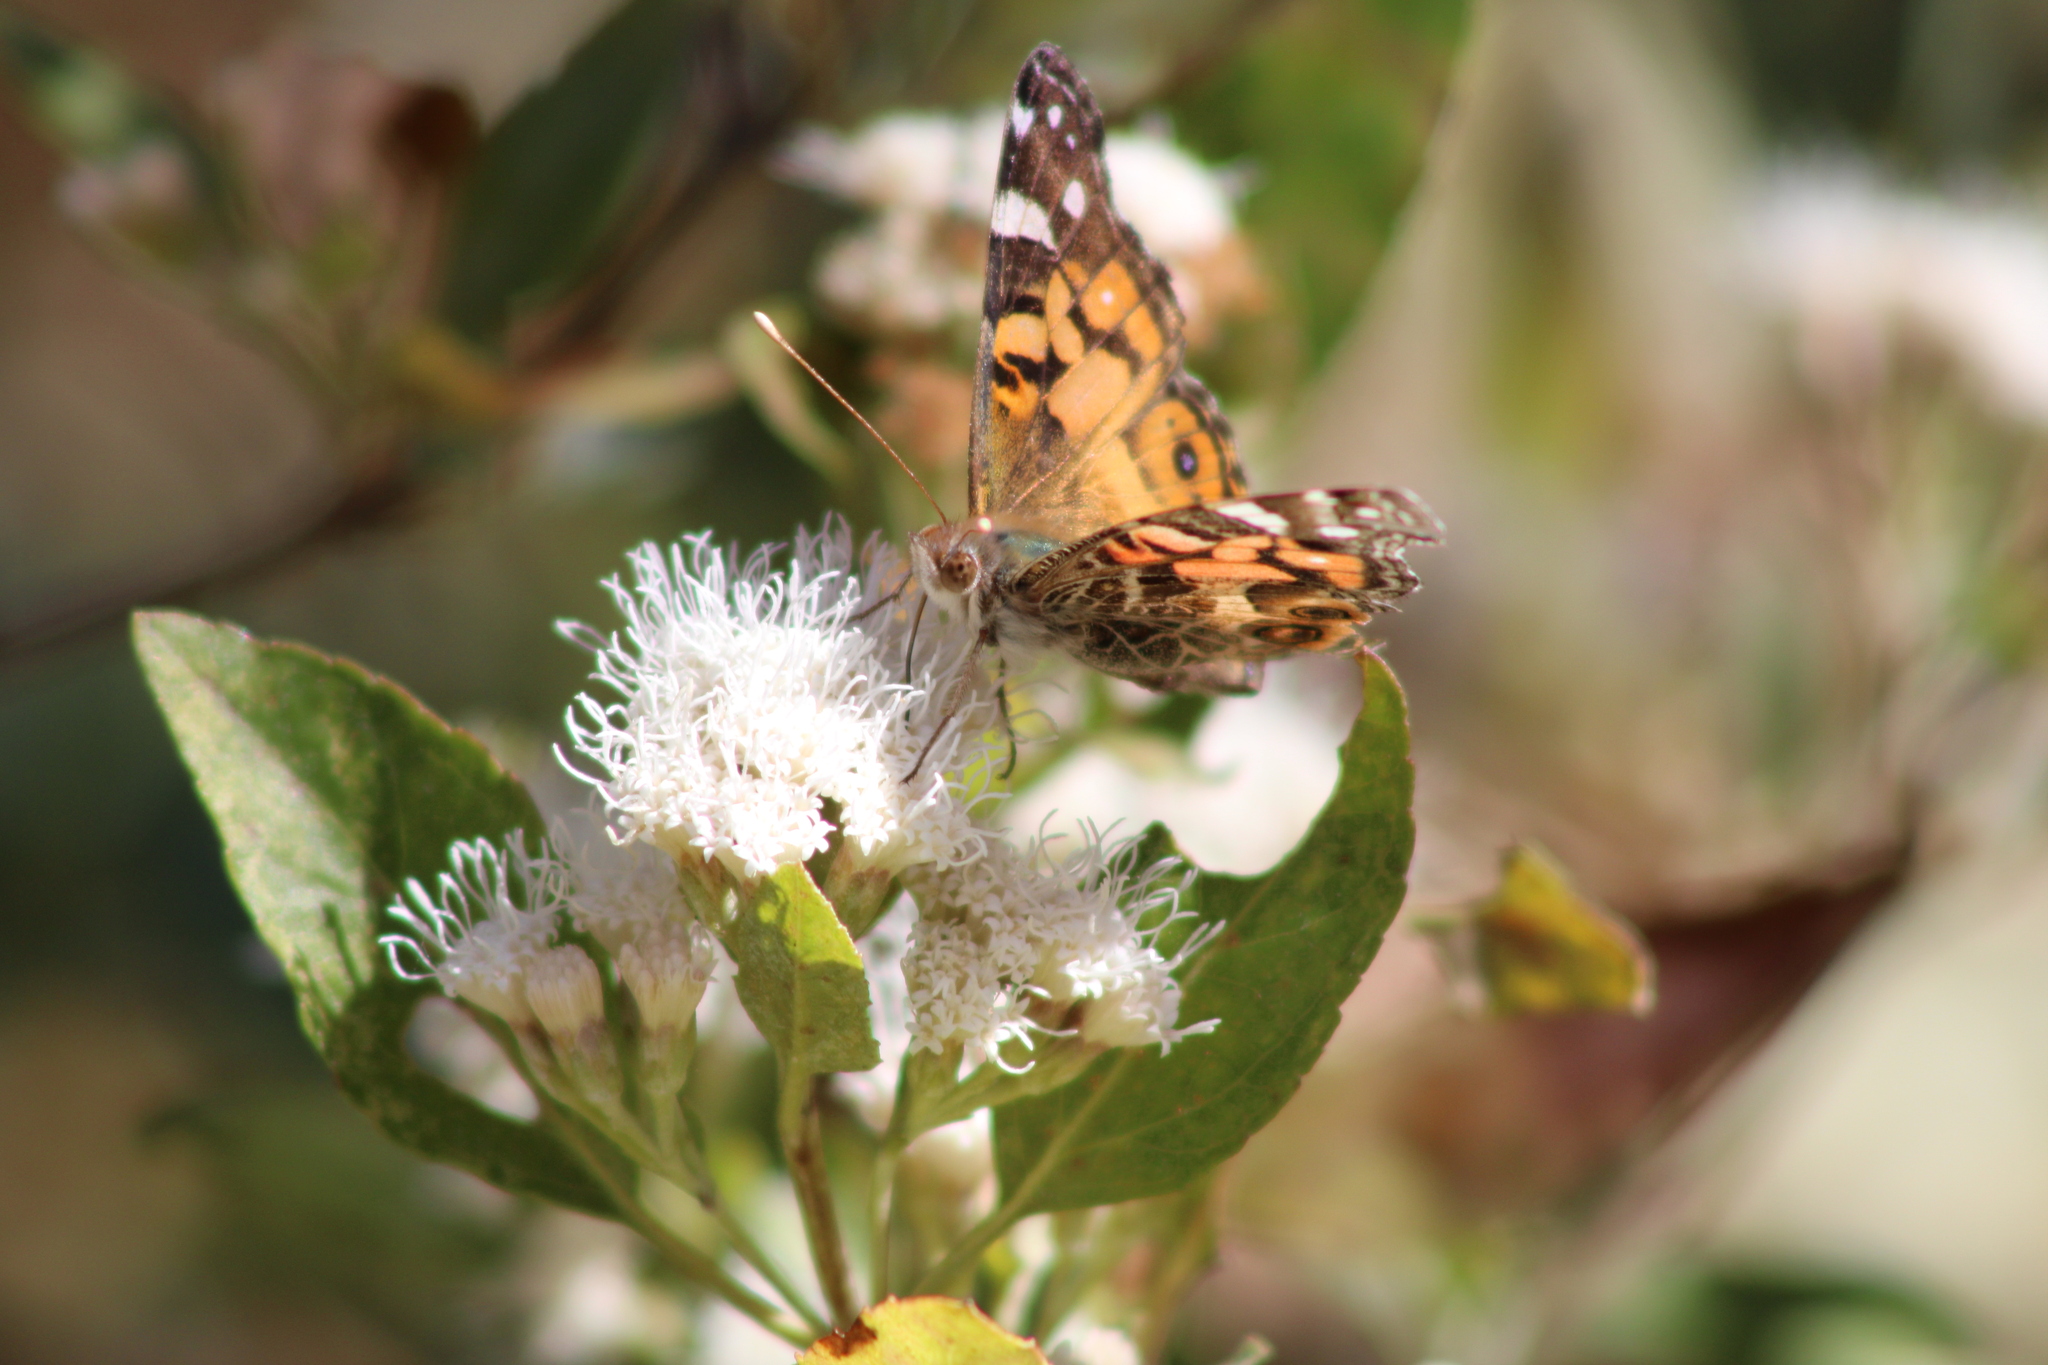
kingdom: Animalia
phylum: Arthropoda
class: Insecta
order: Lepidoptera
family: Nymphalidae
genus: Vanessa
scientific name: Vanessa virginiensis
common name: American lady
